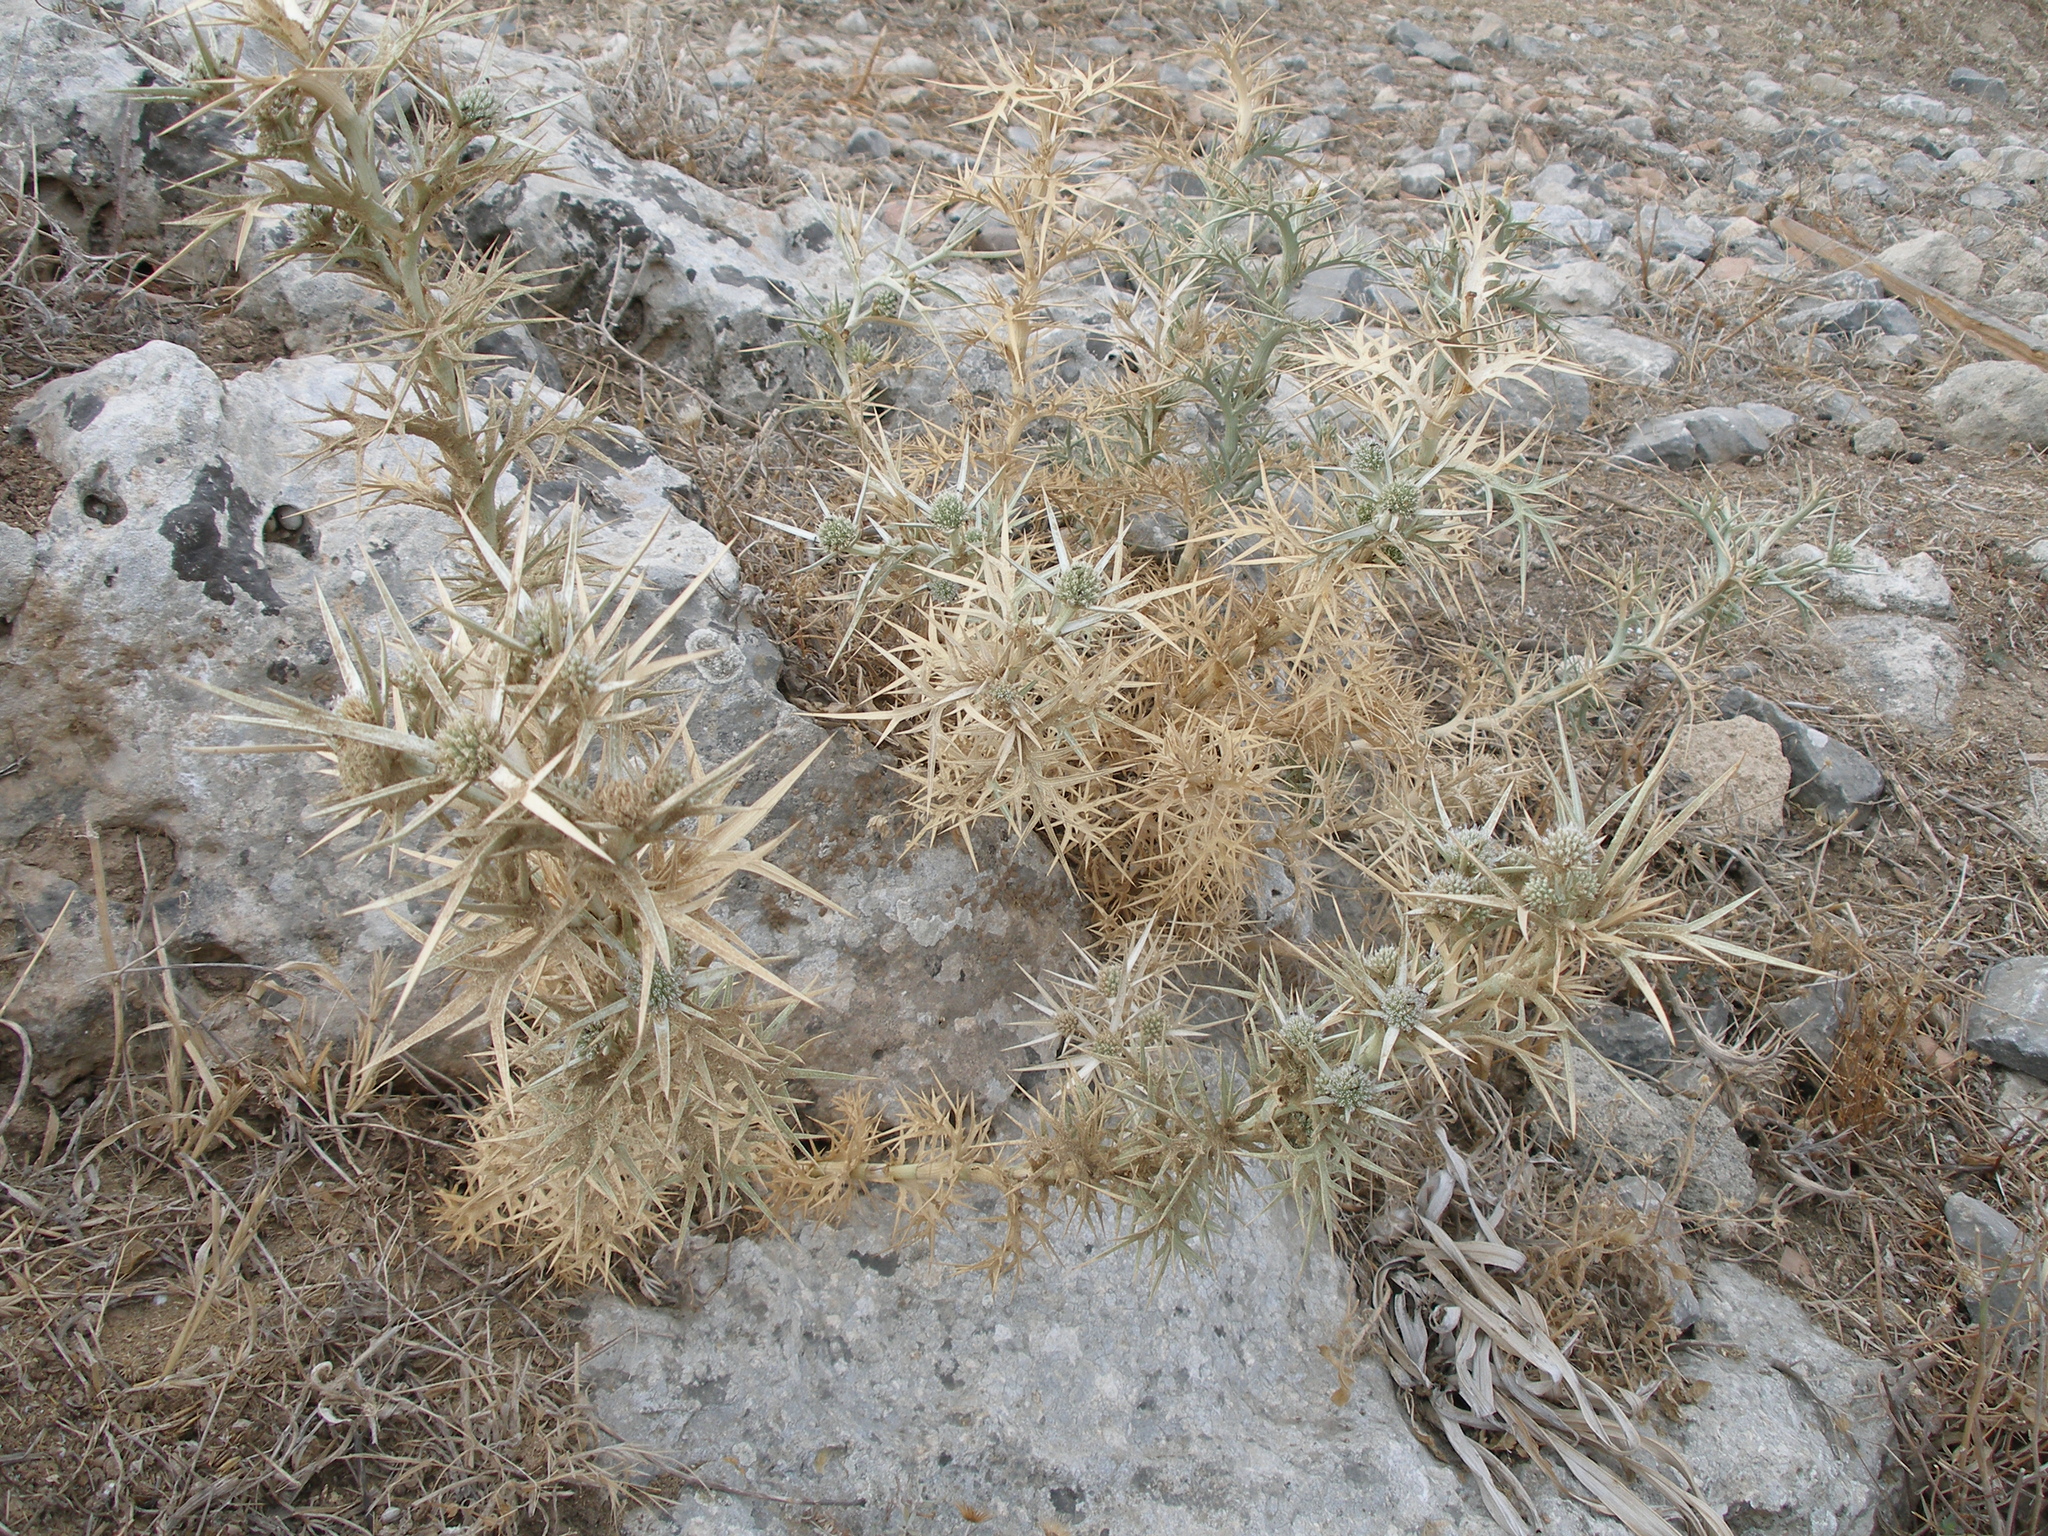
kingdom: Plantae
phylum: Tracheophyta
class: Magnoliopsida
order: Apiales
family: Apiaceae
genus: Eryngium
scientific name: Eryngium glomeratum
